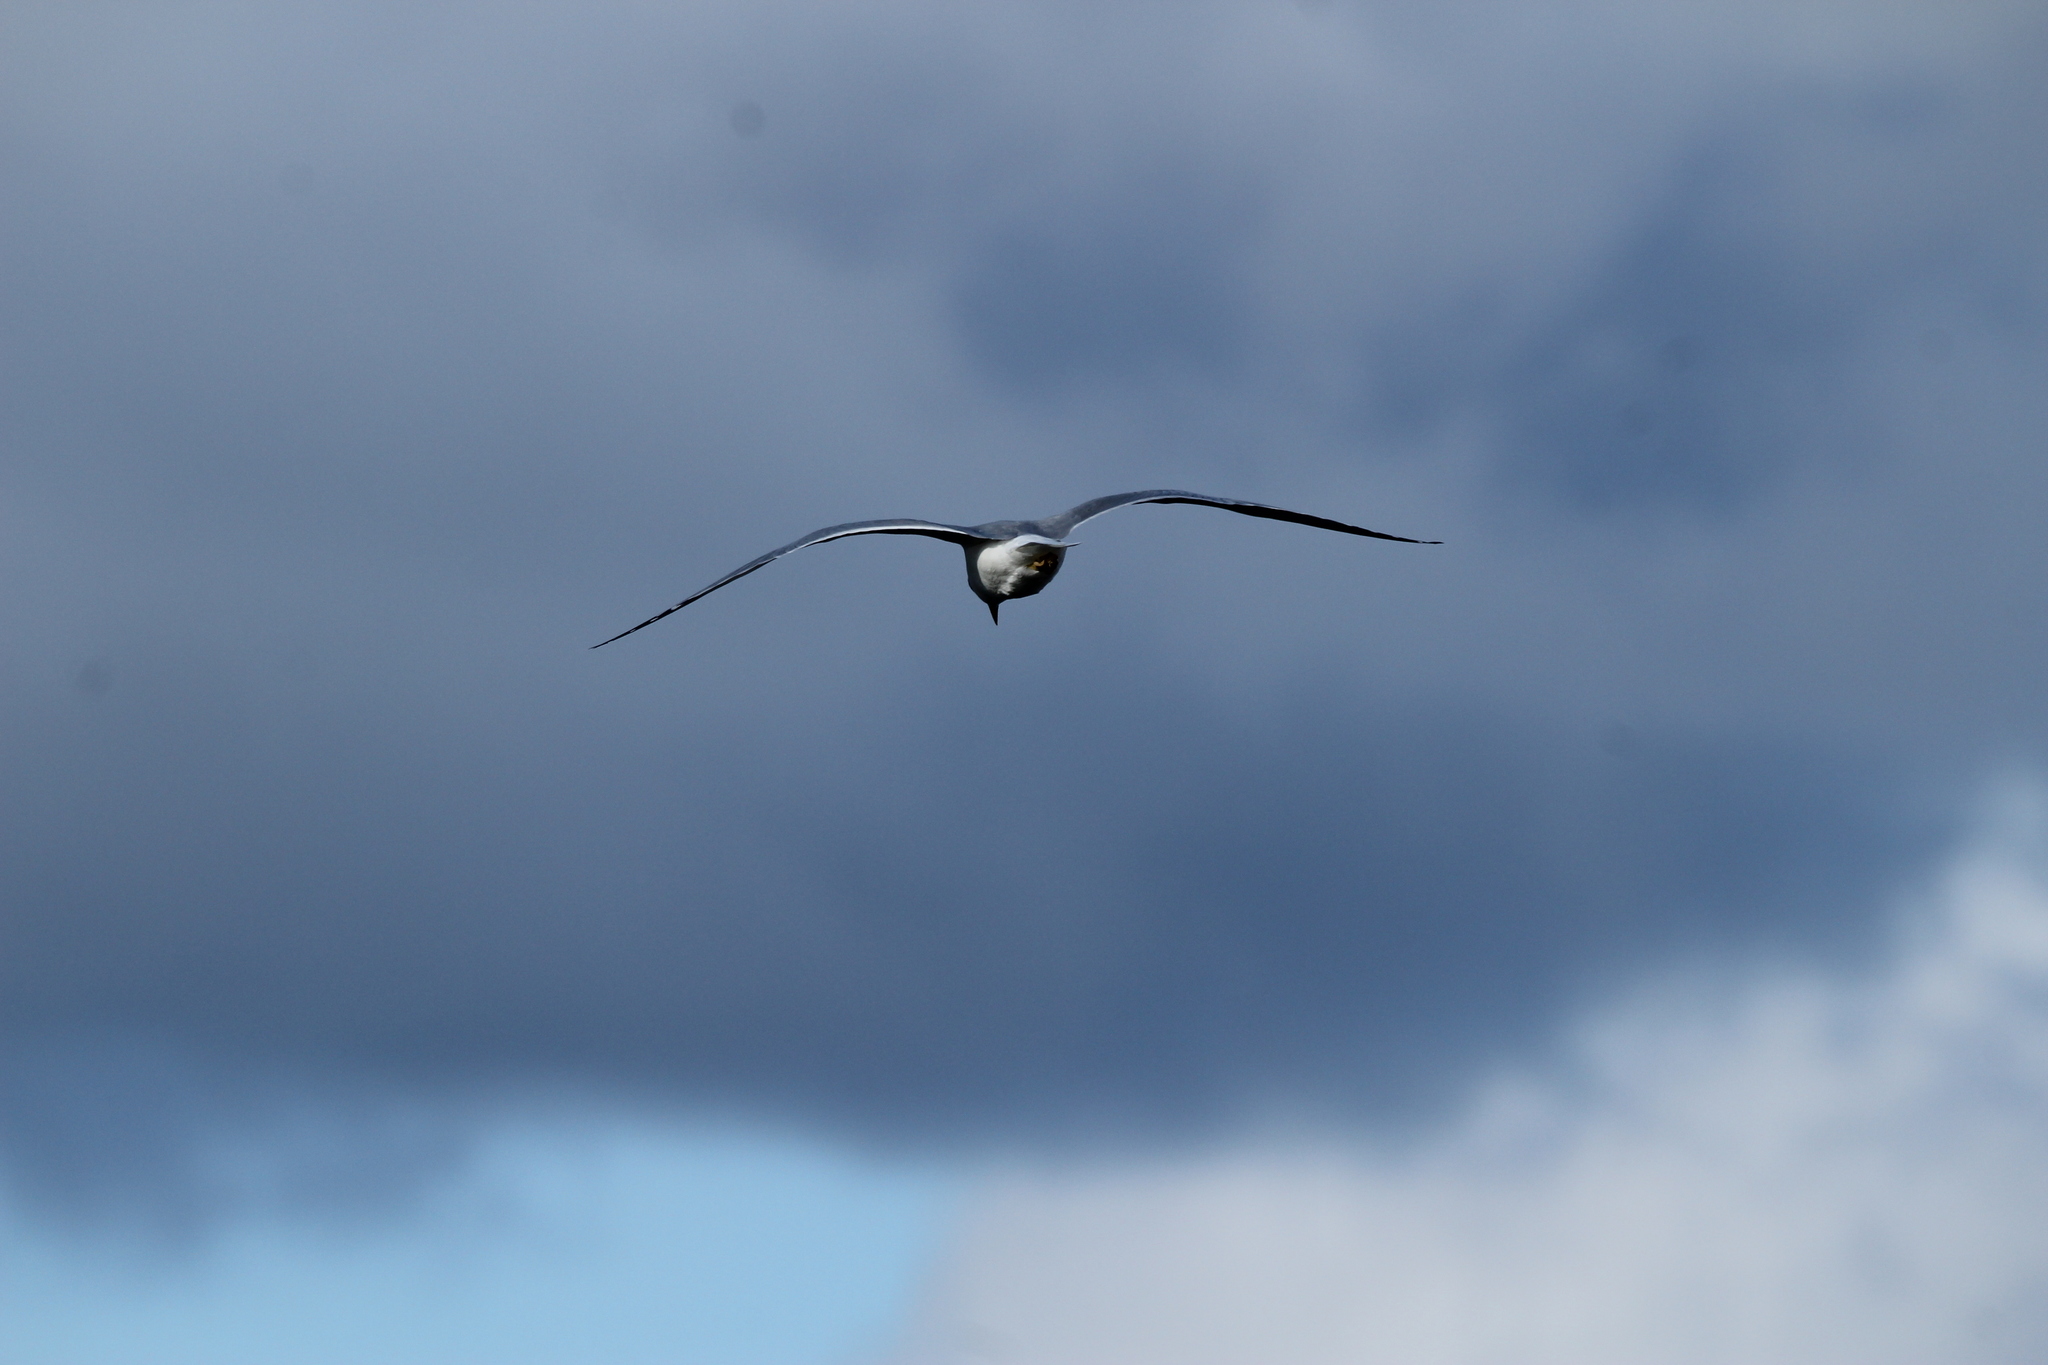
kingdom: Animalia
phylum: Chordata
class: Aves
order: Charadriiformes
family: Laridae
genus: Larus
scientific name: Larus delawarensis
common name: Ring-billed gull
